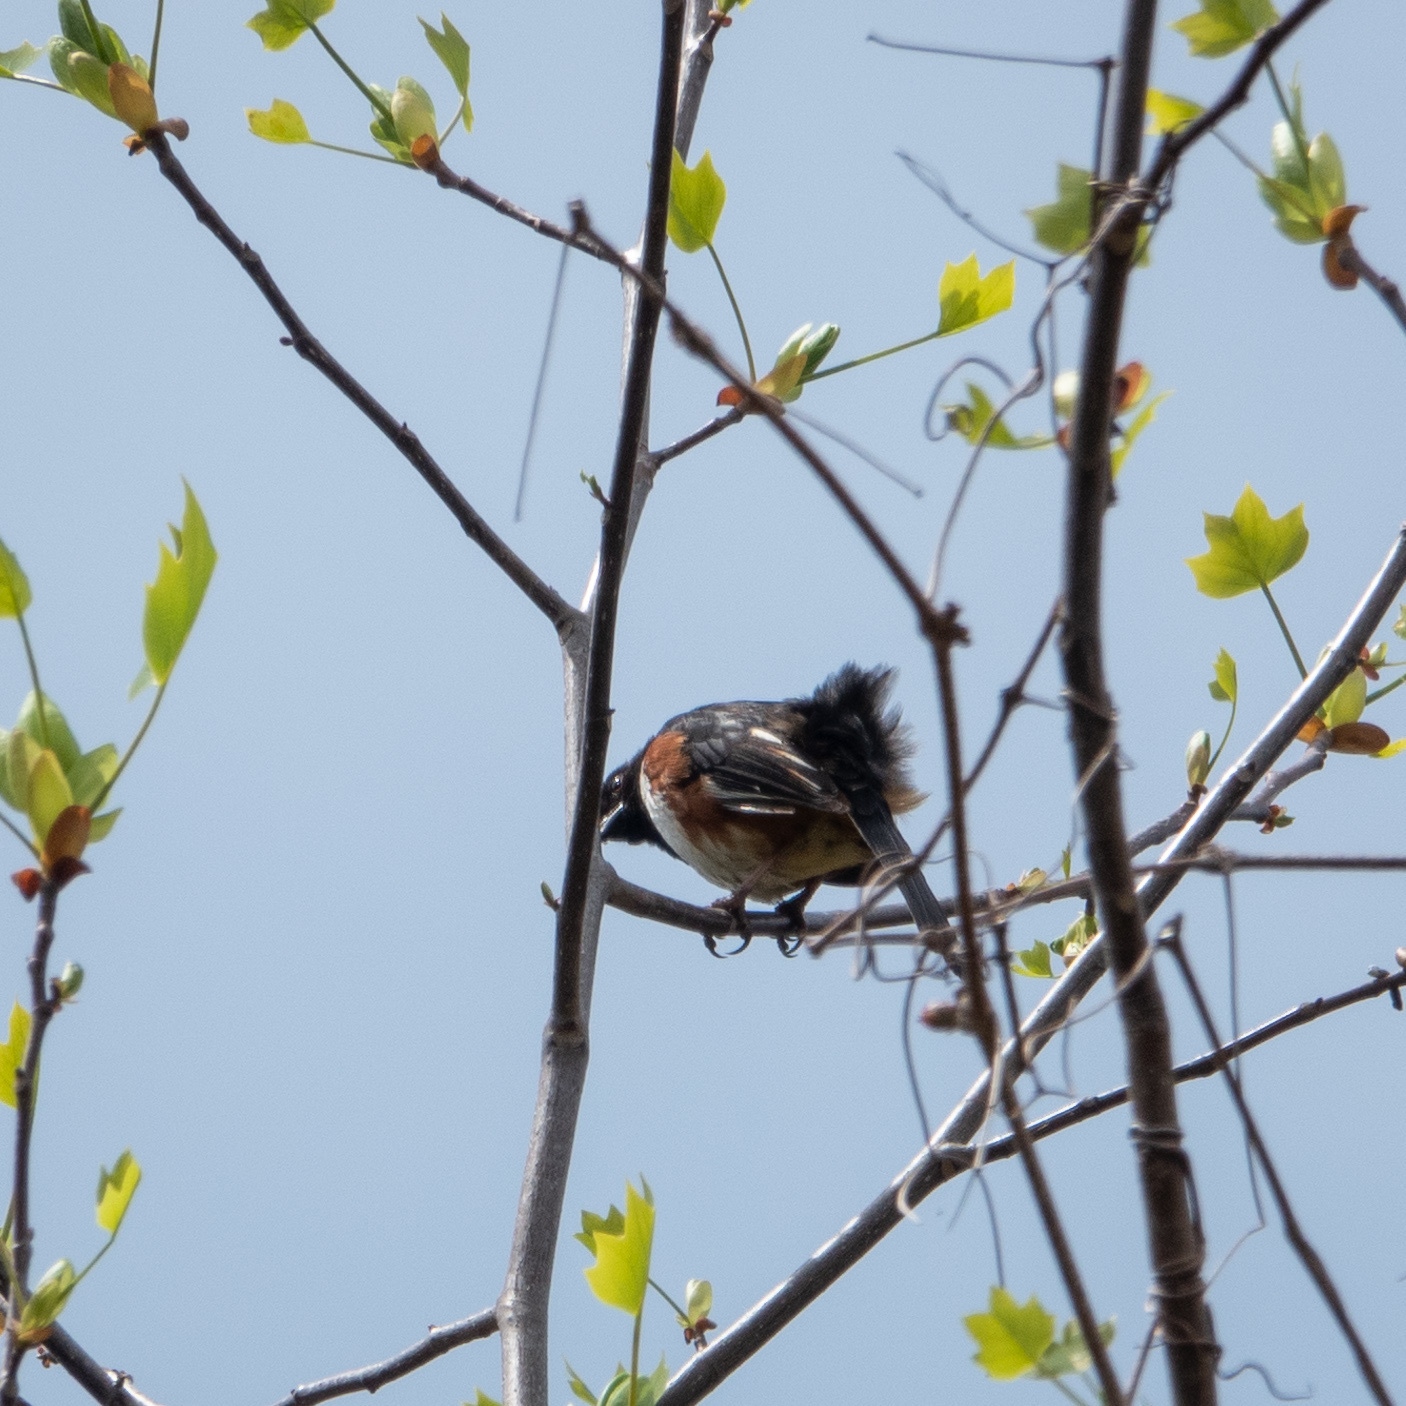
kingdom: Animalia
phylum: Chordata
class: Aves
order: Passeriformes
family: Passerellidae
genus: Pipilo
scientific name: Pipilo erythrophthalmus
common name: Eastern towhee
